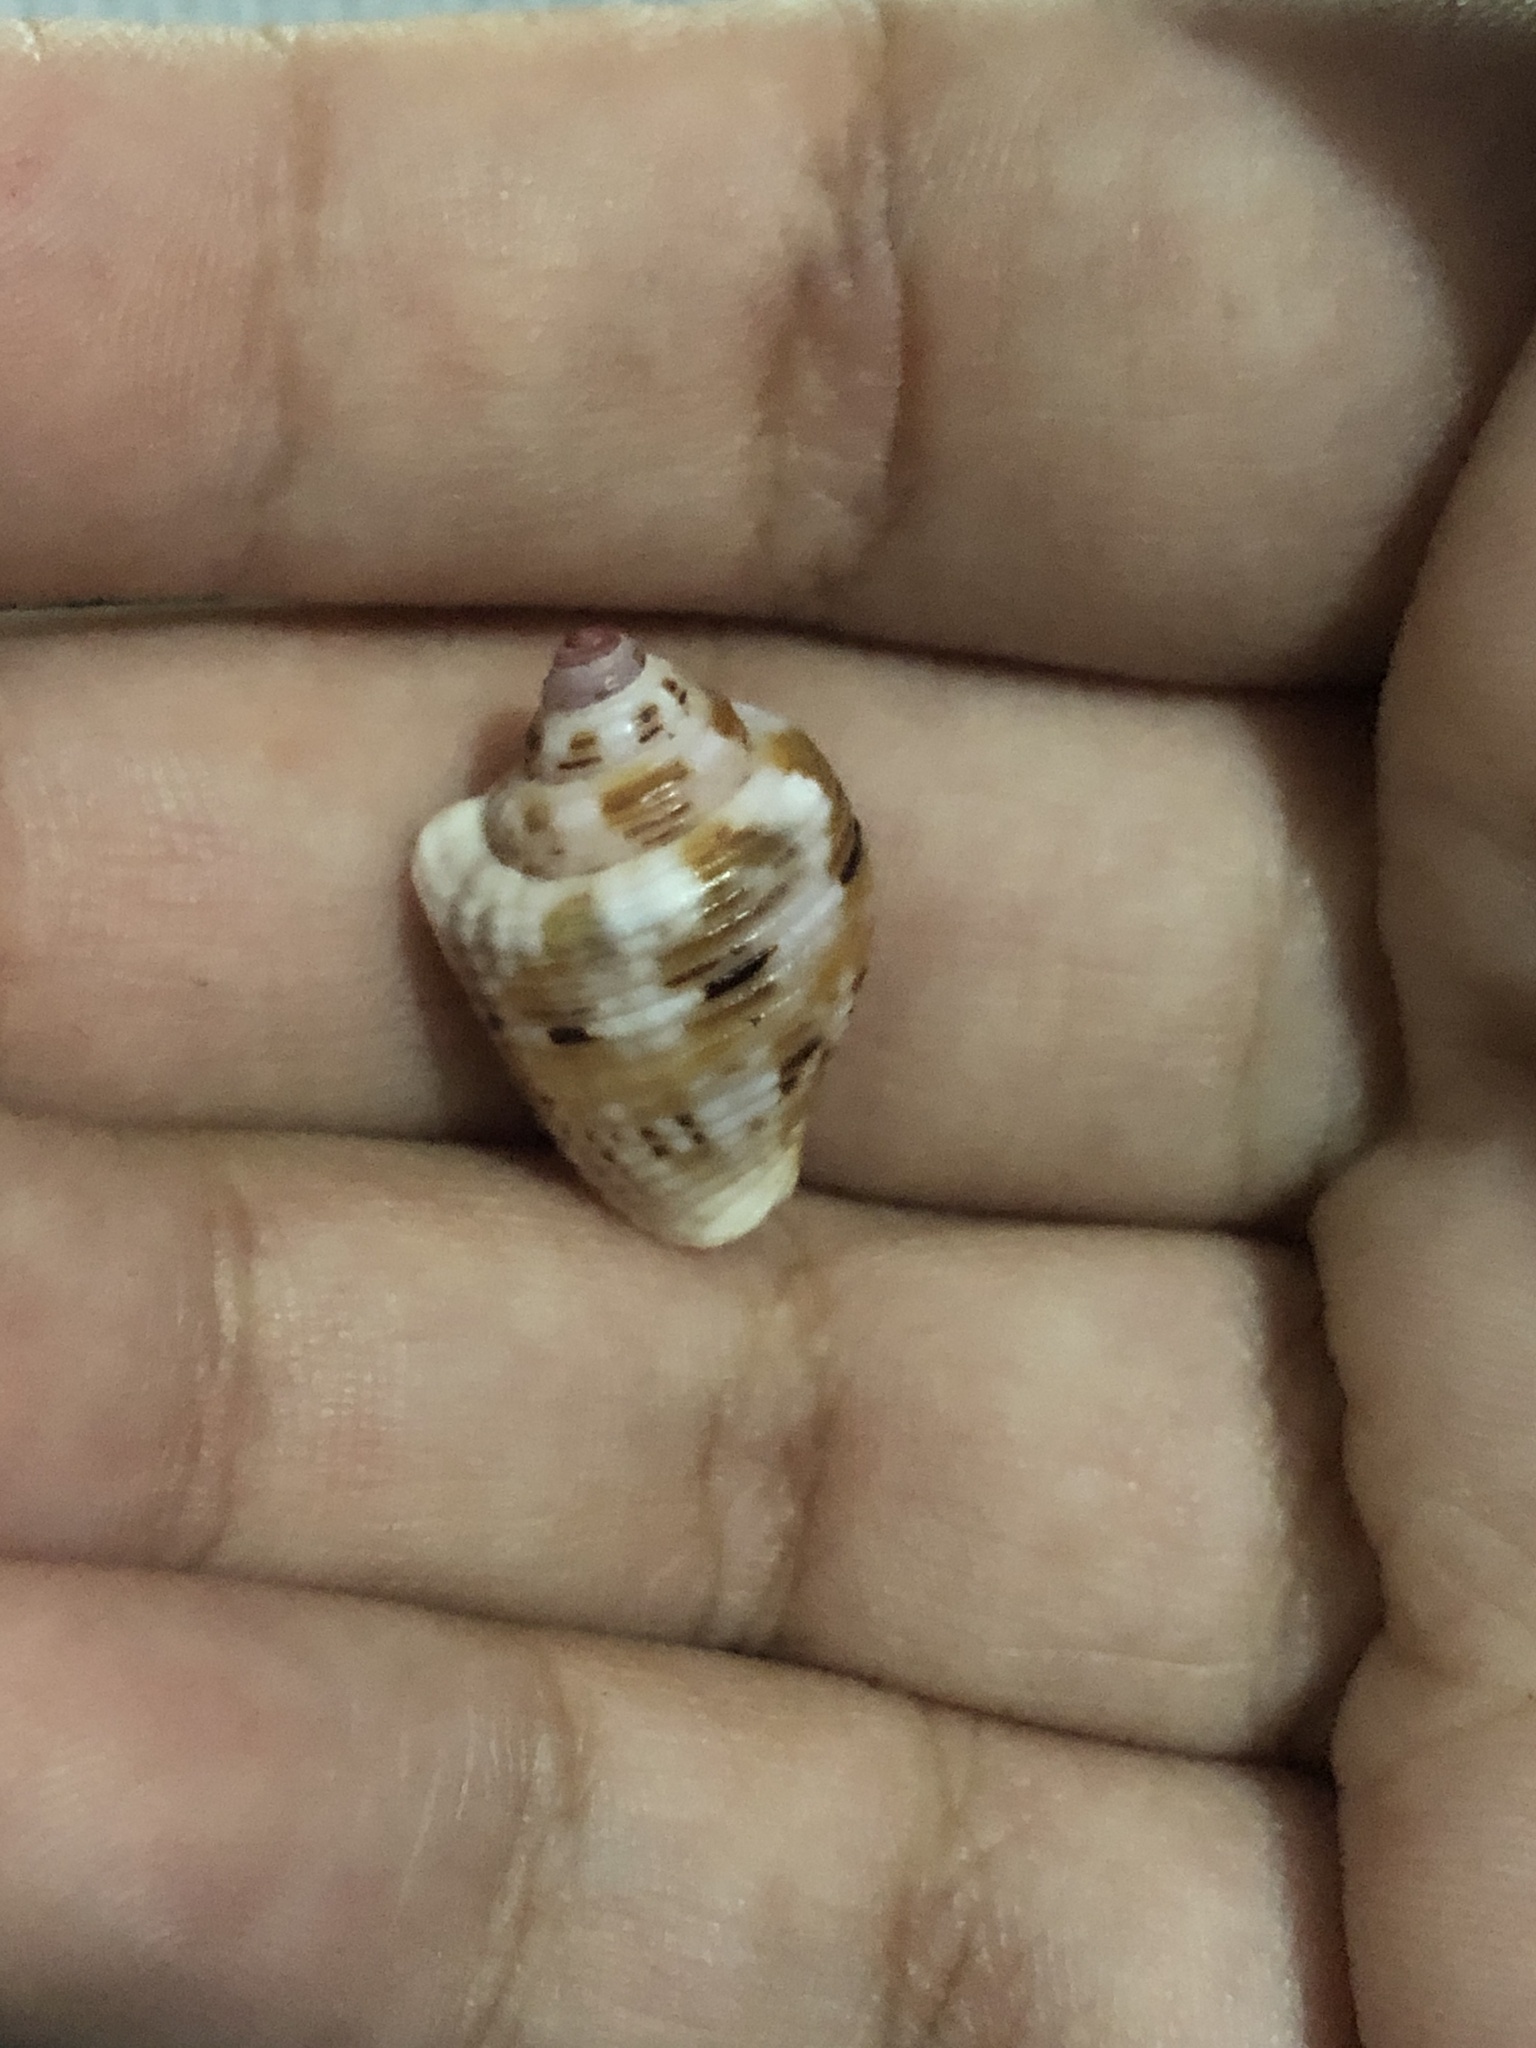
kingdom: Animalia
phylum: Mollusca
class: Gastropoda
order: Neogastropoda
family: Columbellidae
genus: Columbella
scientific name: Columbella mercatoria
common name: West indian dovesnail
